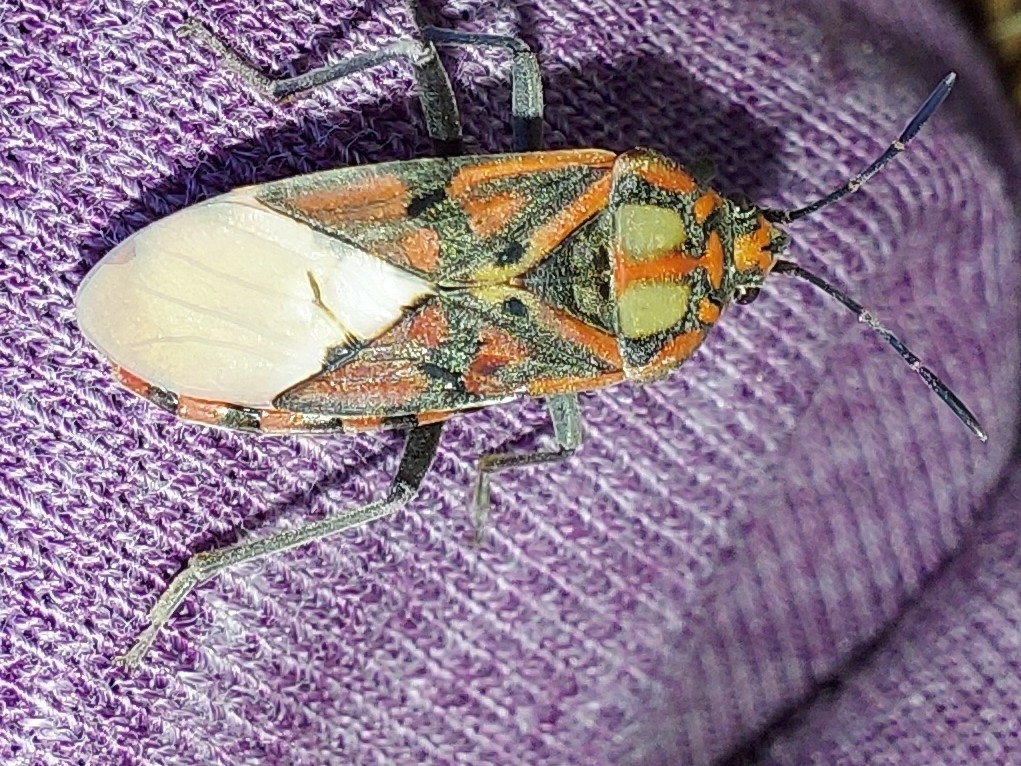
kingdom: Animalia
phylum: Arthropoda
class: Insecta
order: Hemiptera
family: Lygaeidae
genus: Spilostethus
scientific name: Spilostethus pandurus
